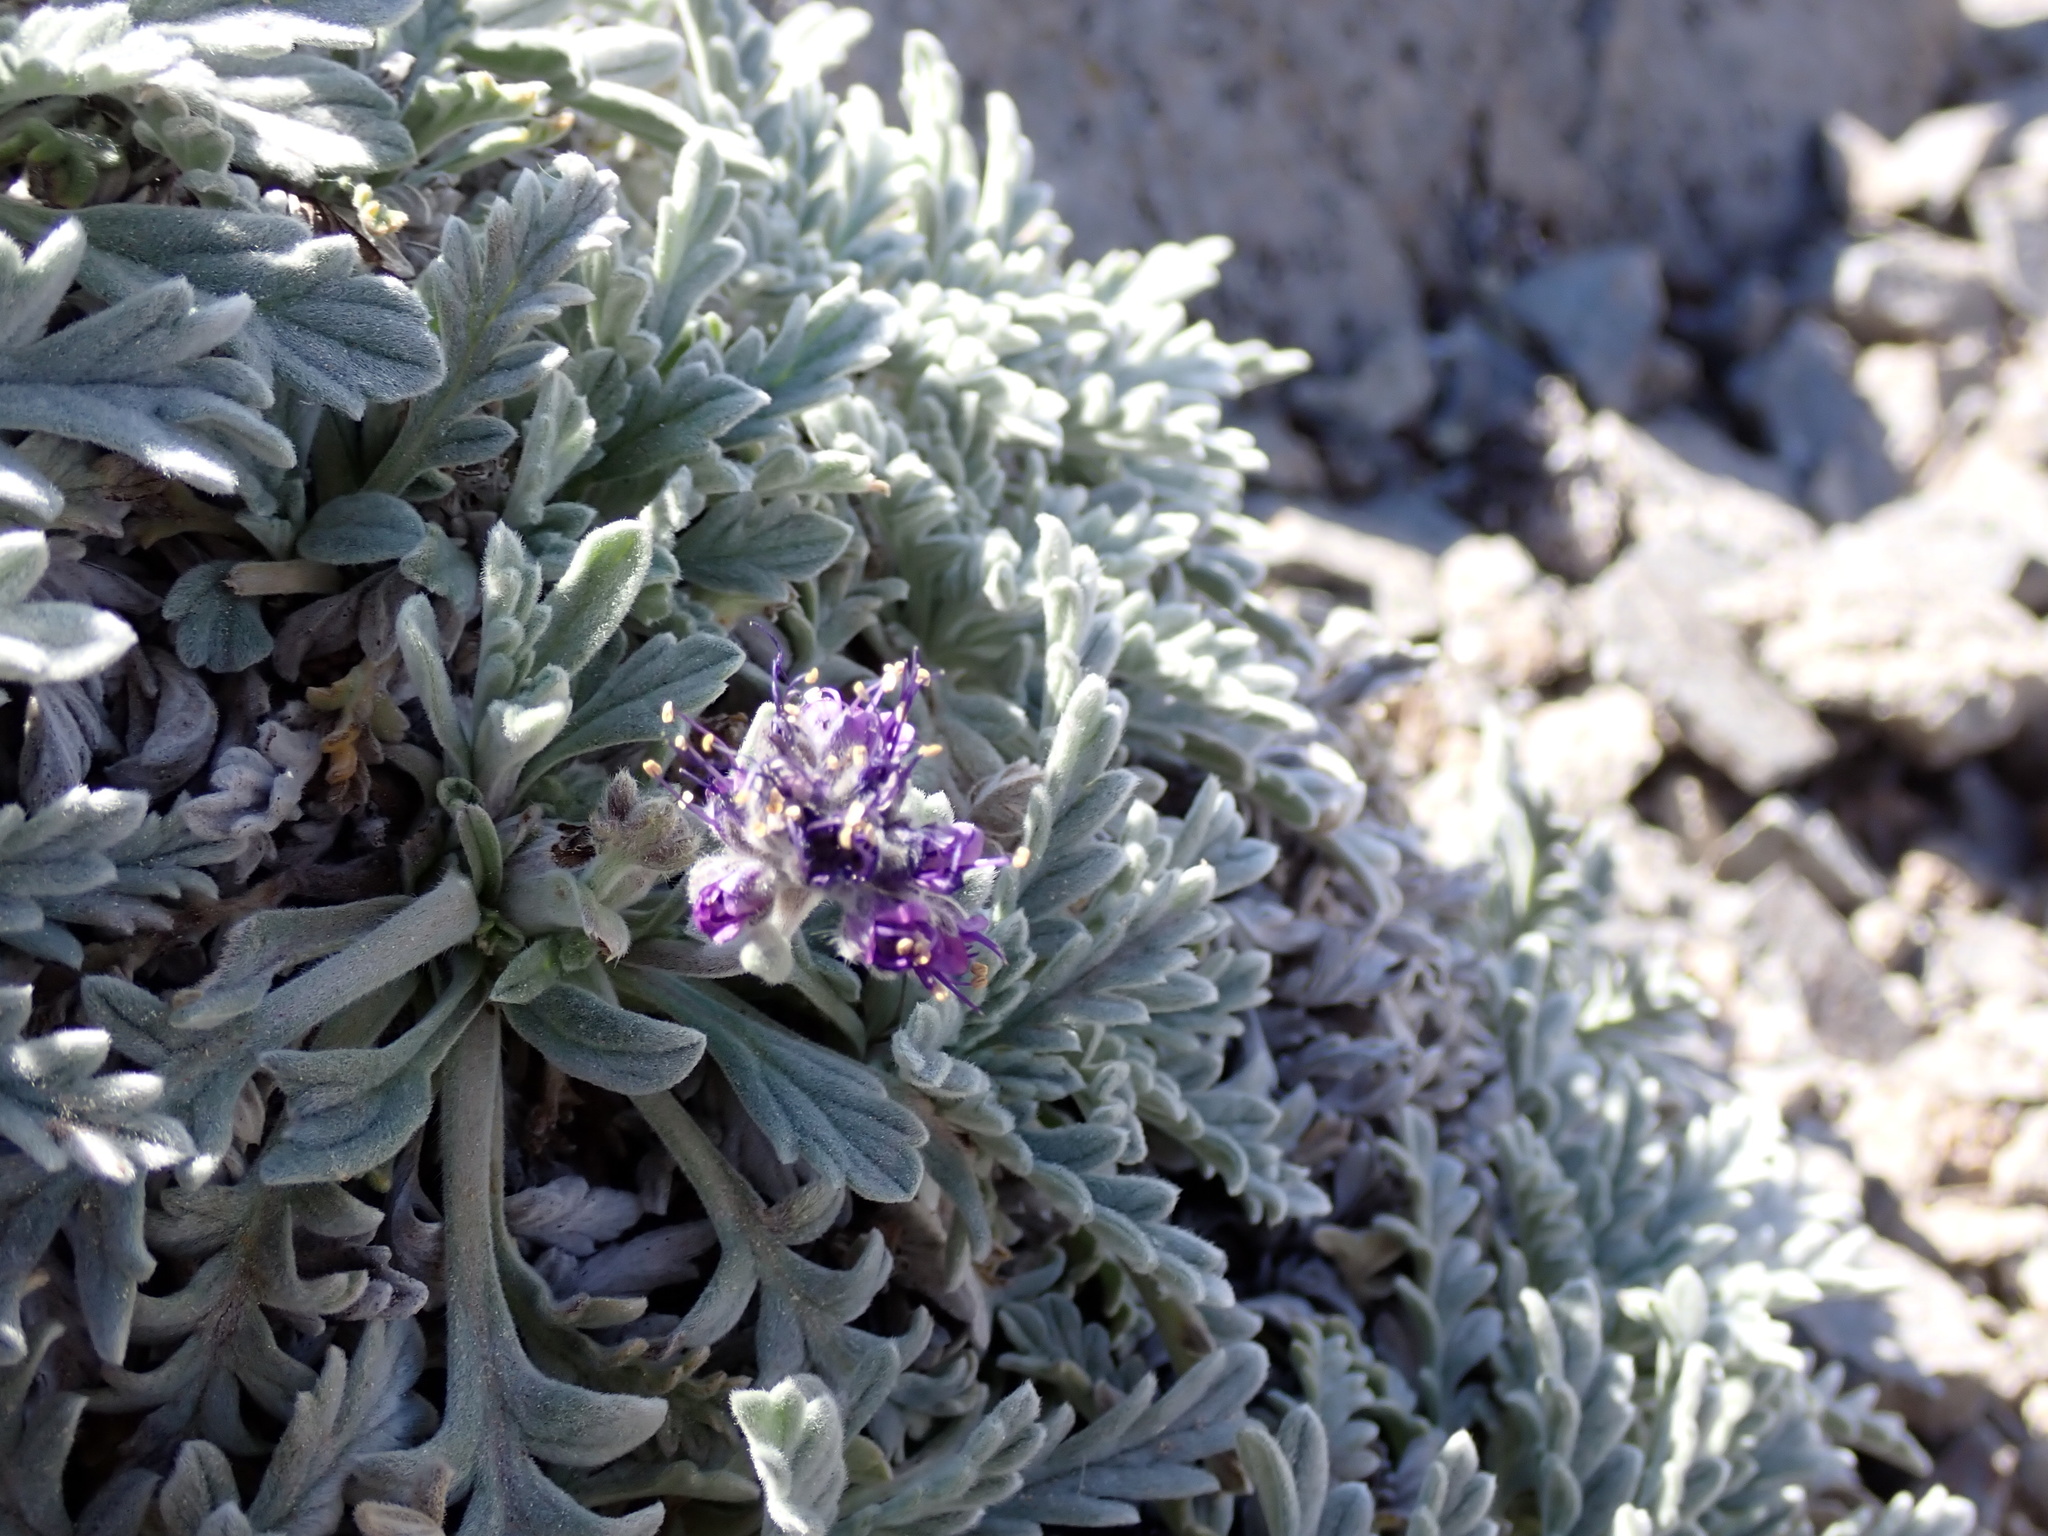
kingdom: Plantae
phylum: Tracheophyta
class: Magnoliopsida
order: Boraginales
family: Hydrophyllaceae
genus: Phacelia
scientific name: Phacelia sericea
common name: Silky phacelia
